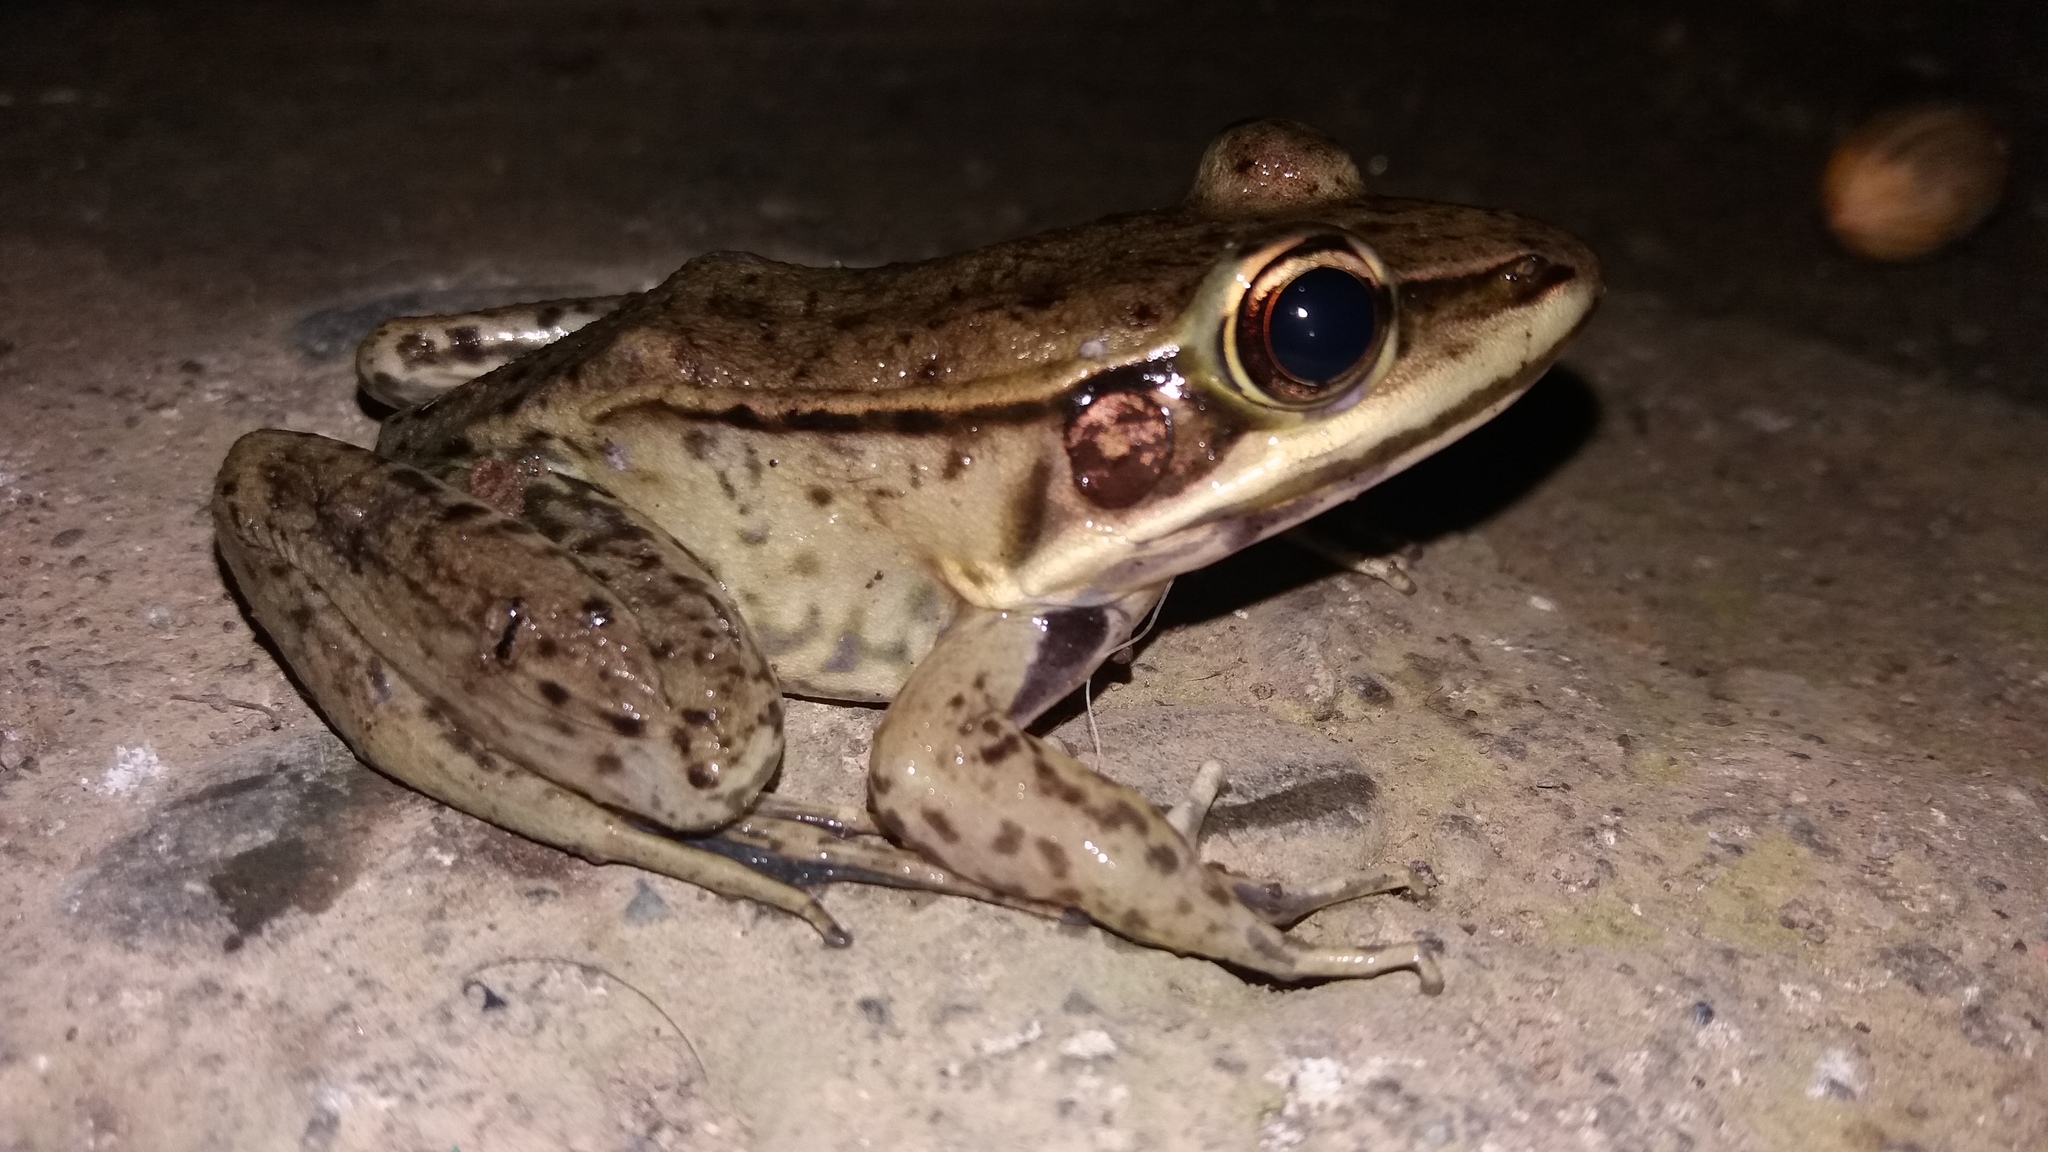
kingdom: Animalia
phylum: Chordata
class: Amphibia
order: Anura
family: Ranidae
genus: Lithobates
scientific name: Lithobates vaillanti
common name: Vaillant's frog
